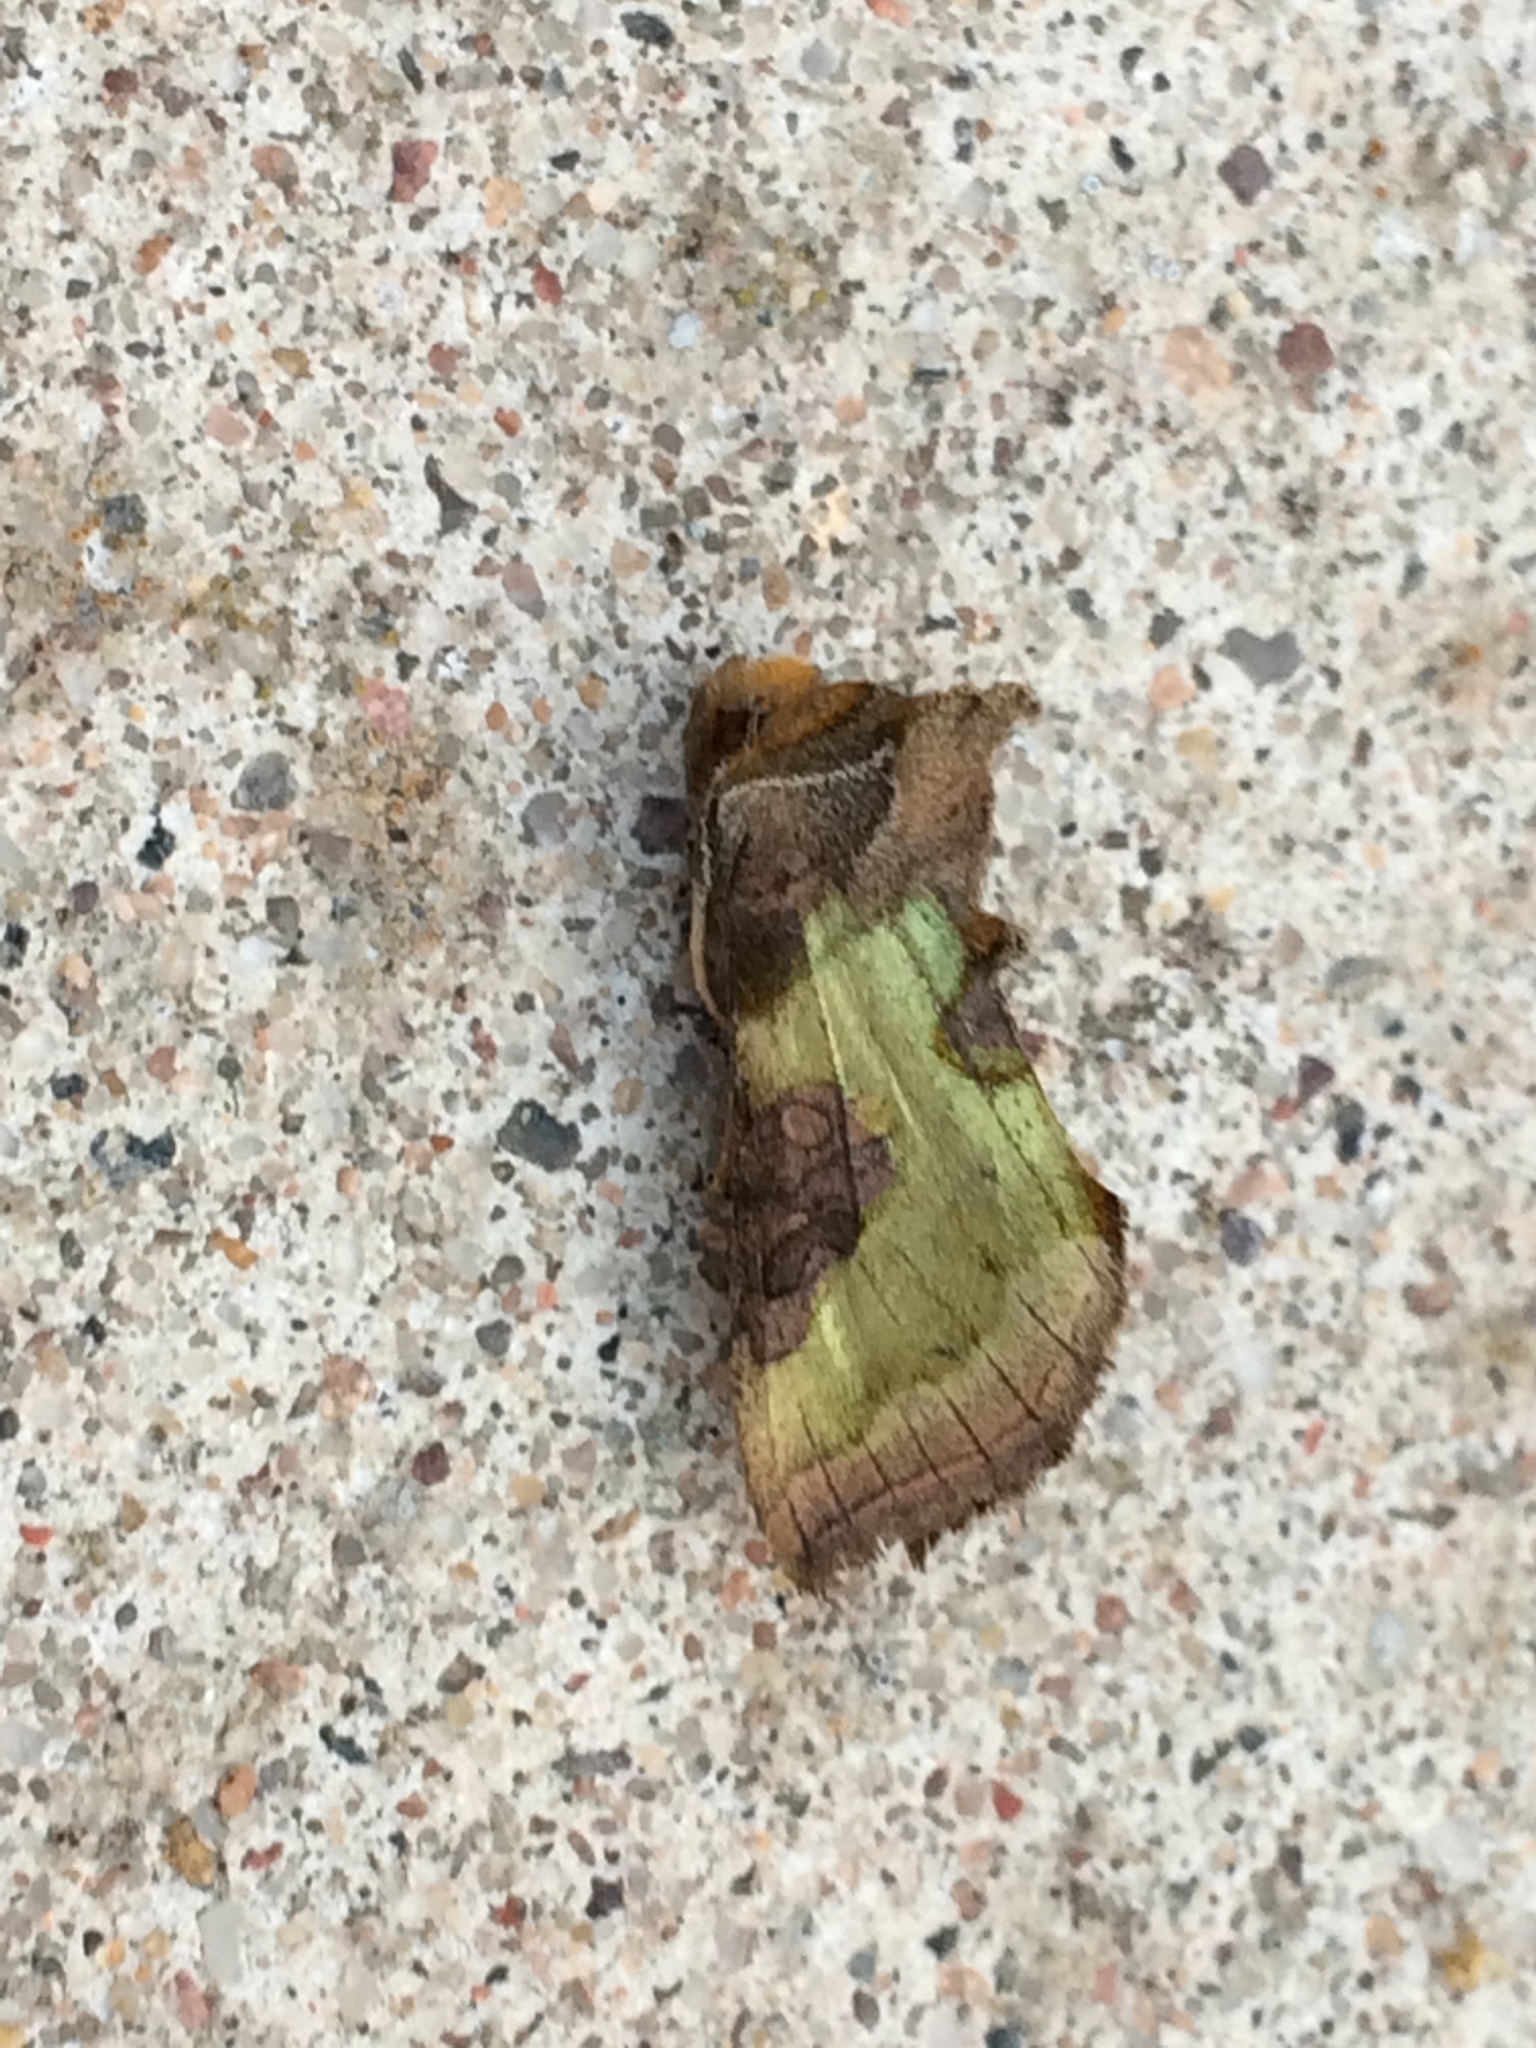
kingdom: Animalia
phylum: Arthropoda
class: Insecta
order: Lepidoptera
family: Noctuidae
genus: Diachrysia
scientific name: Diachrysia stenochrysis
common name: Cryptic burnished brass
